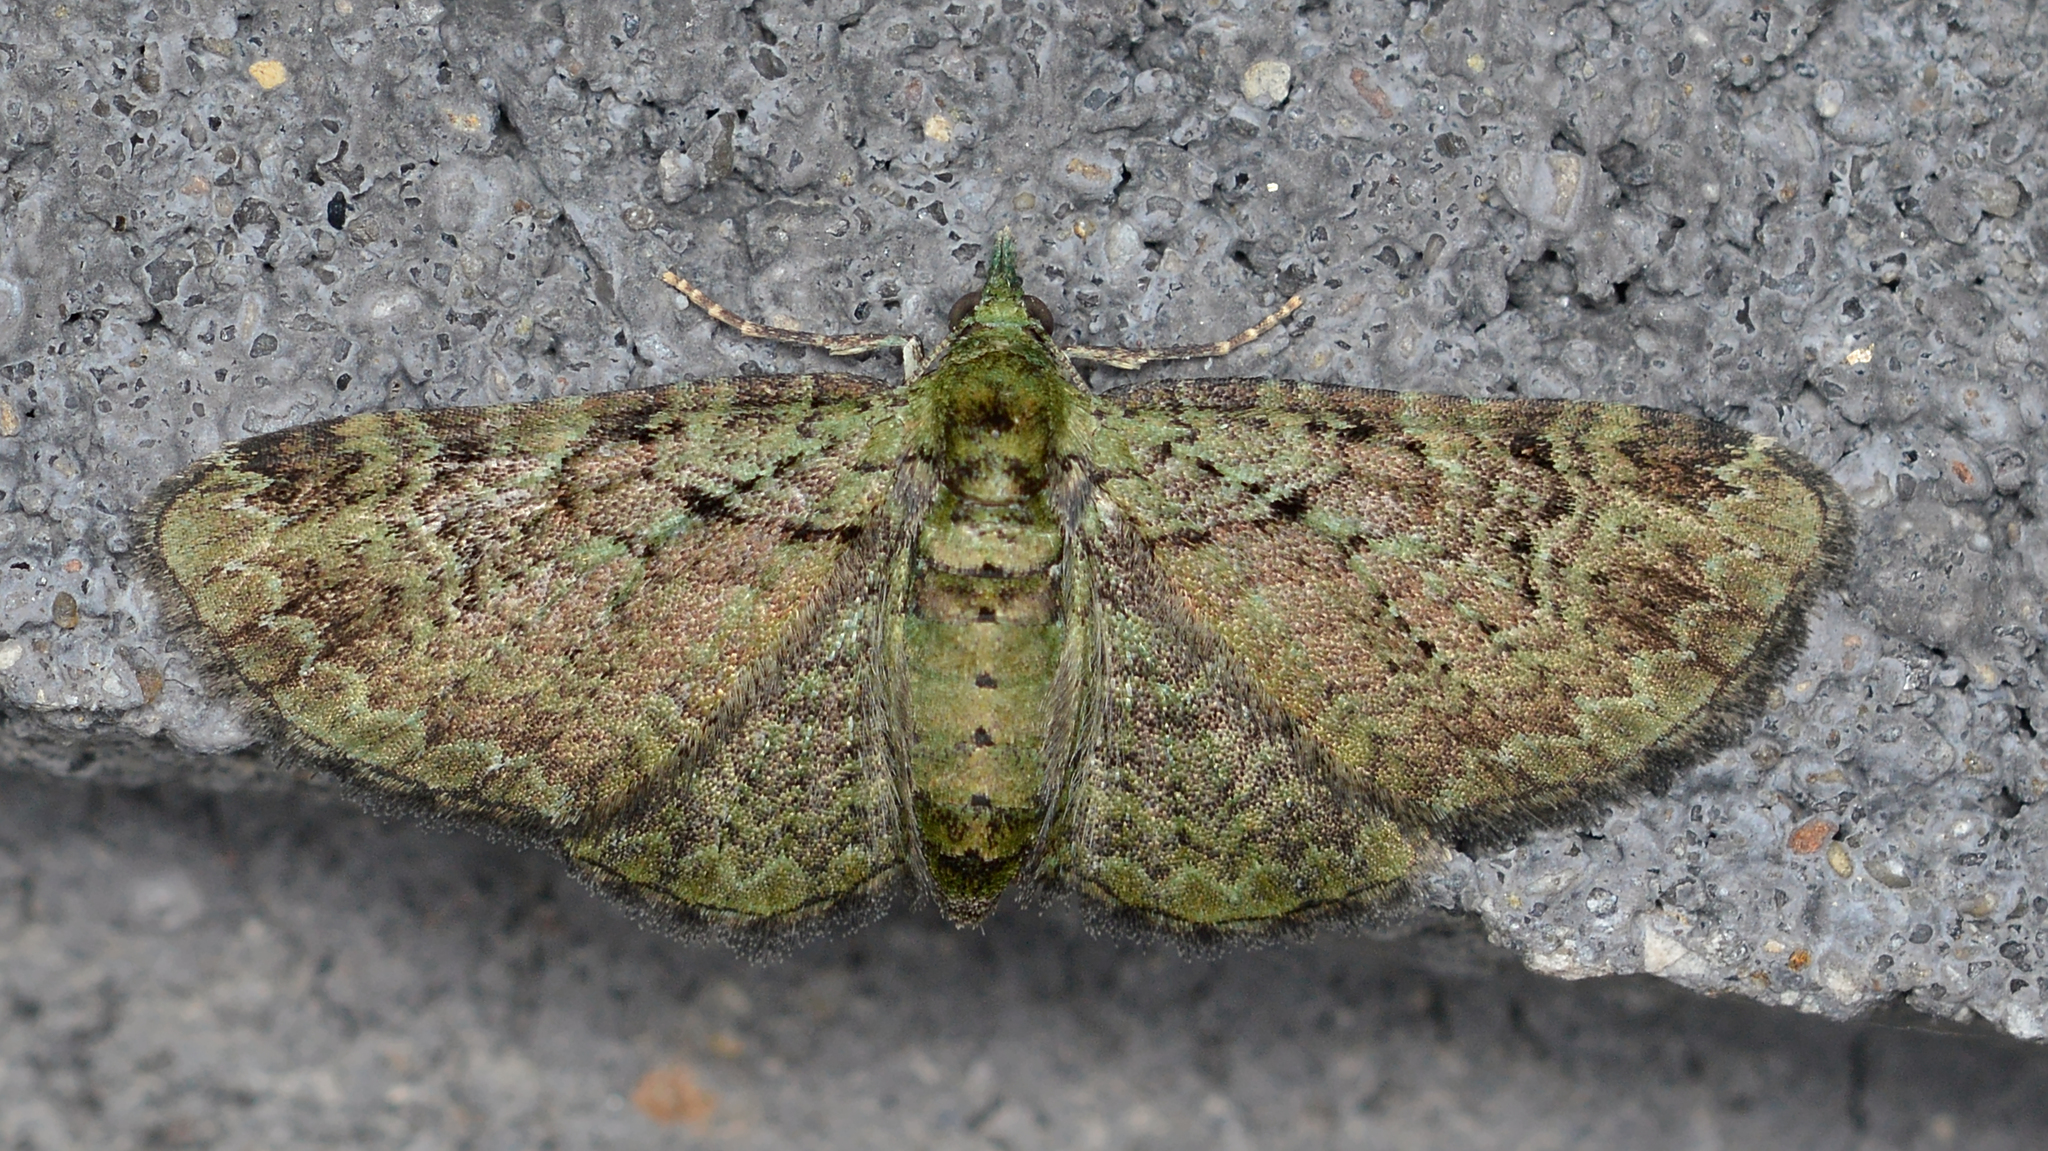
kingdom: Animalia
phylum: Arthropoda
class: Insecta
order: Lepidoptera
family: Geometridae
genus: Pasiphila
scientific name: Pasiphila rectangulata
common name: Green pug
